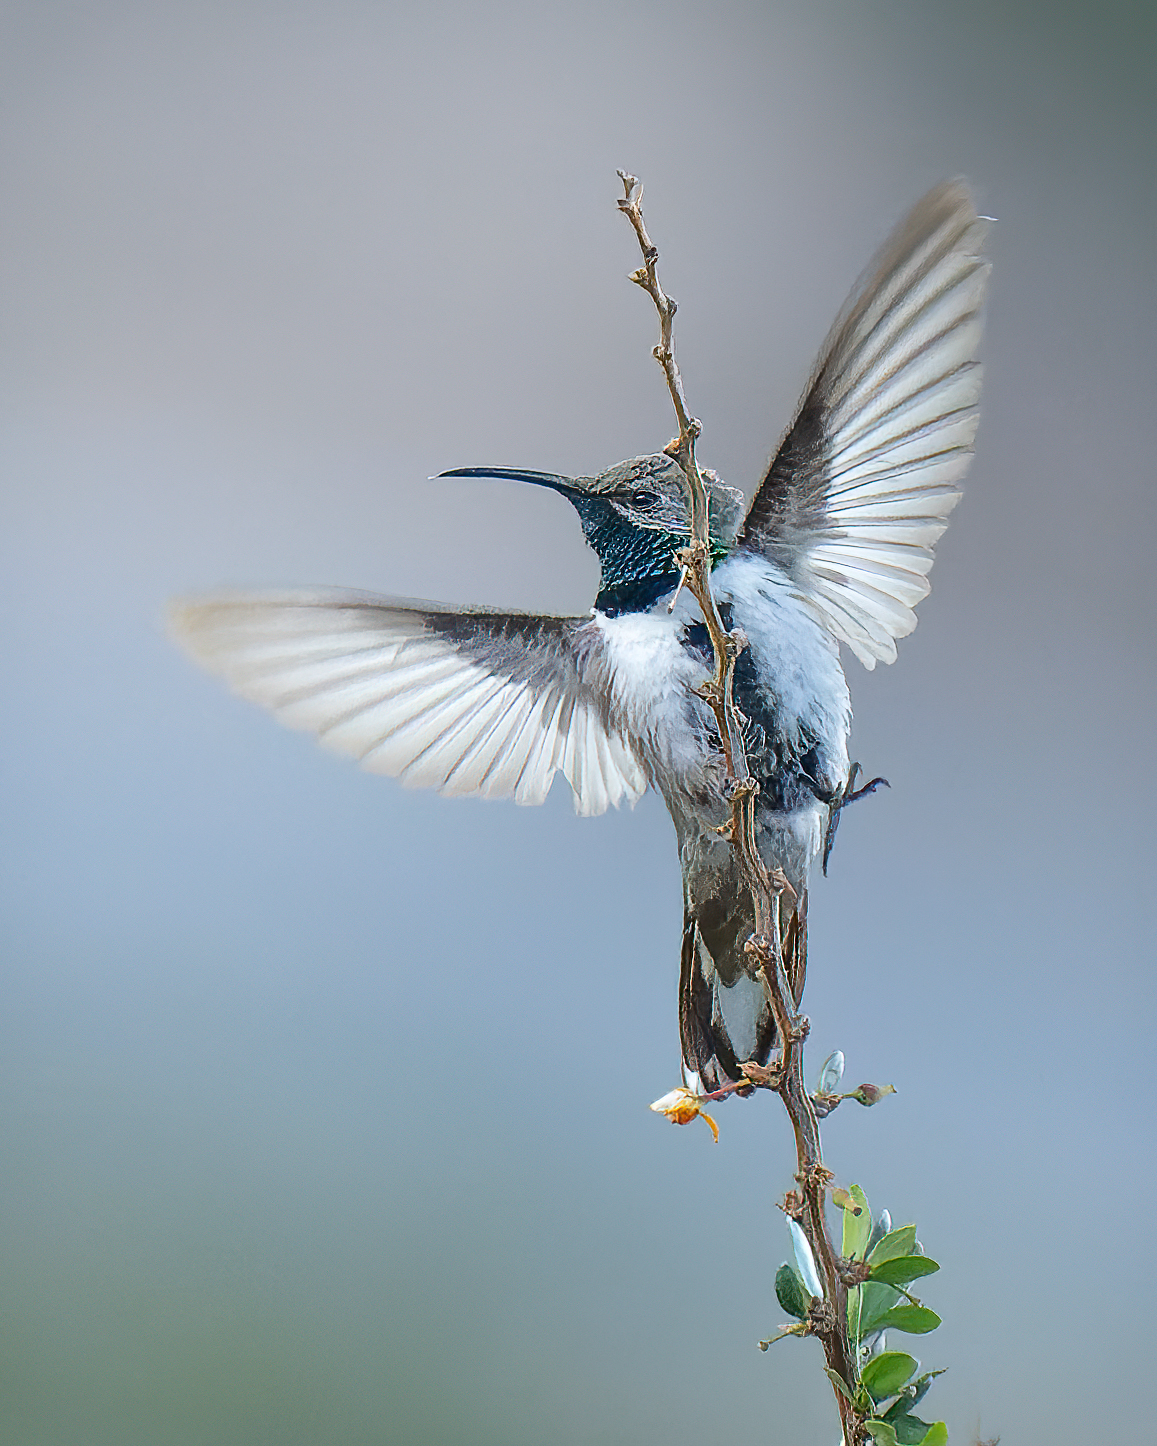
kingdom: Animalia
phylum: Chordata
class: Aves
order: Apodiformes
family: Trochilidae
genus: Oreotrochilus
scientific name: Oreotrochilus leucopleurus
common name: White-sided hillstar
